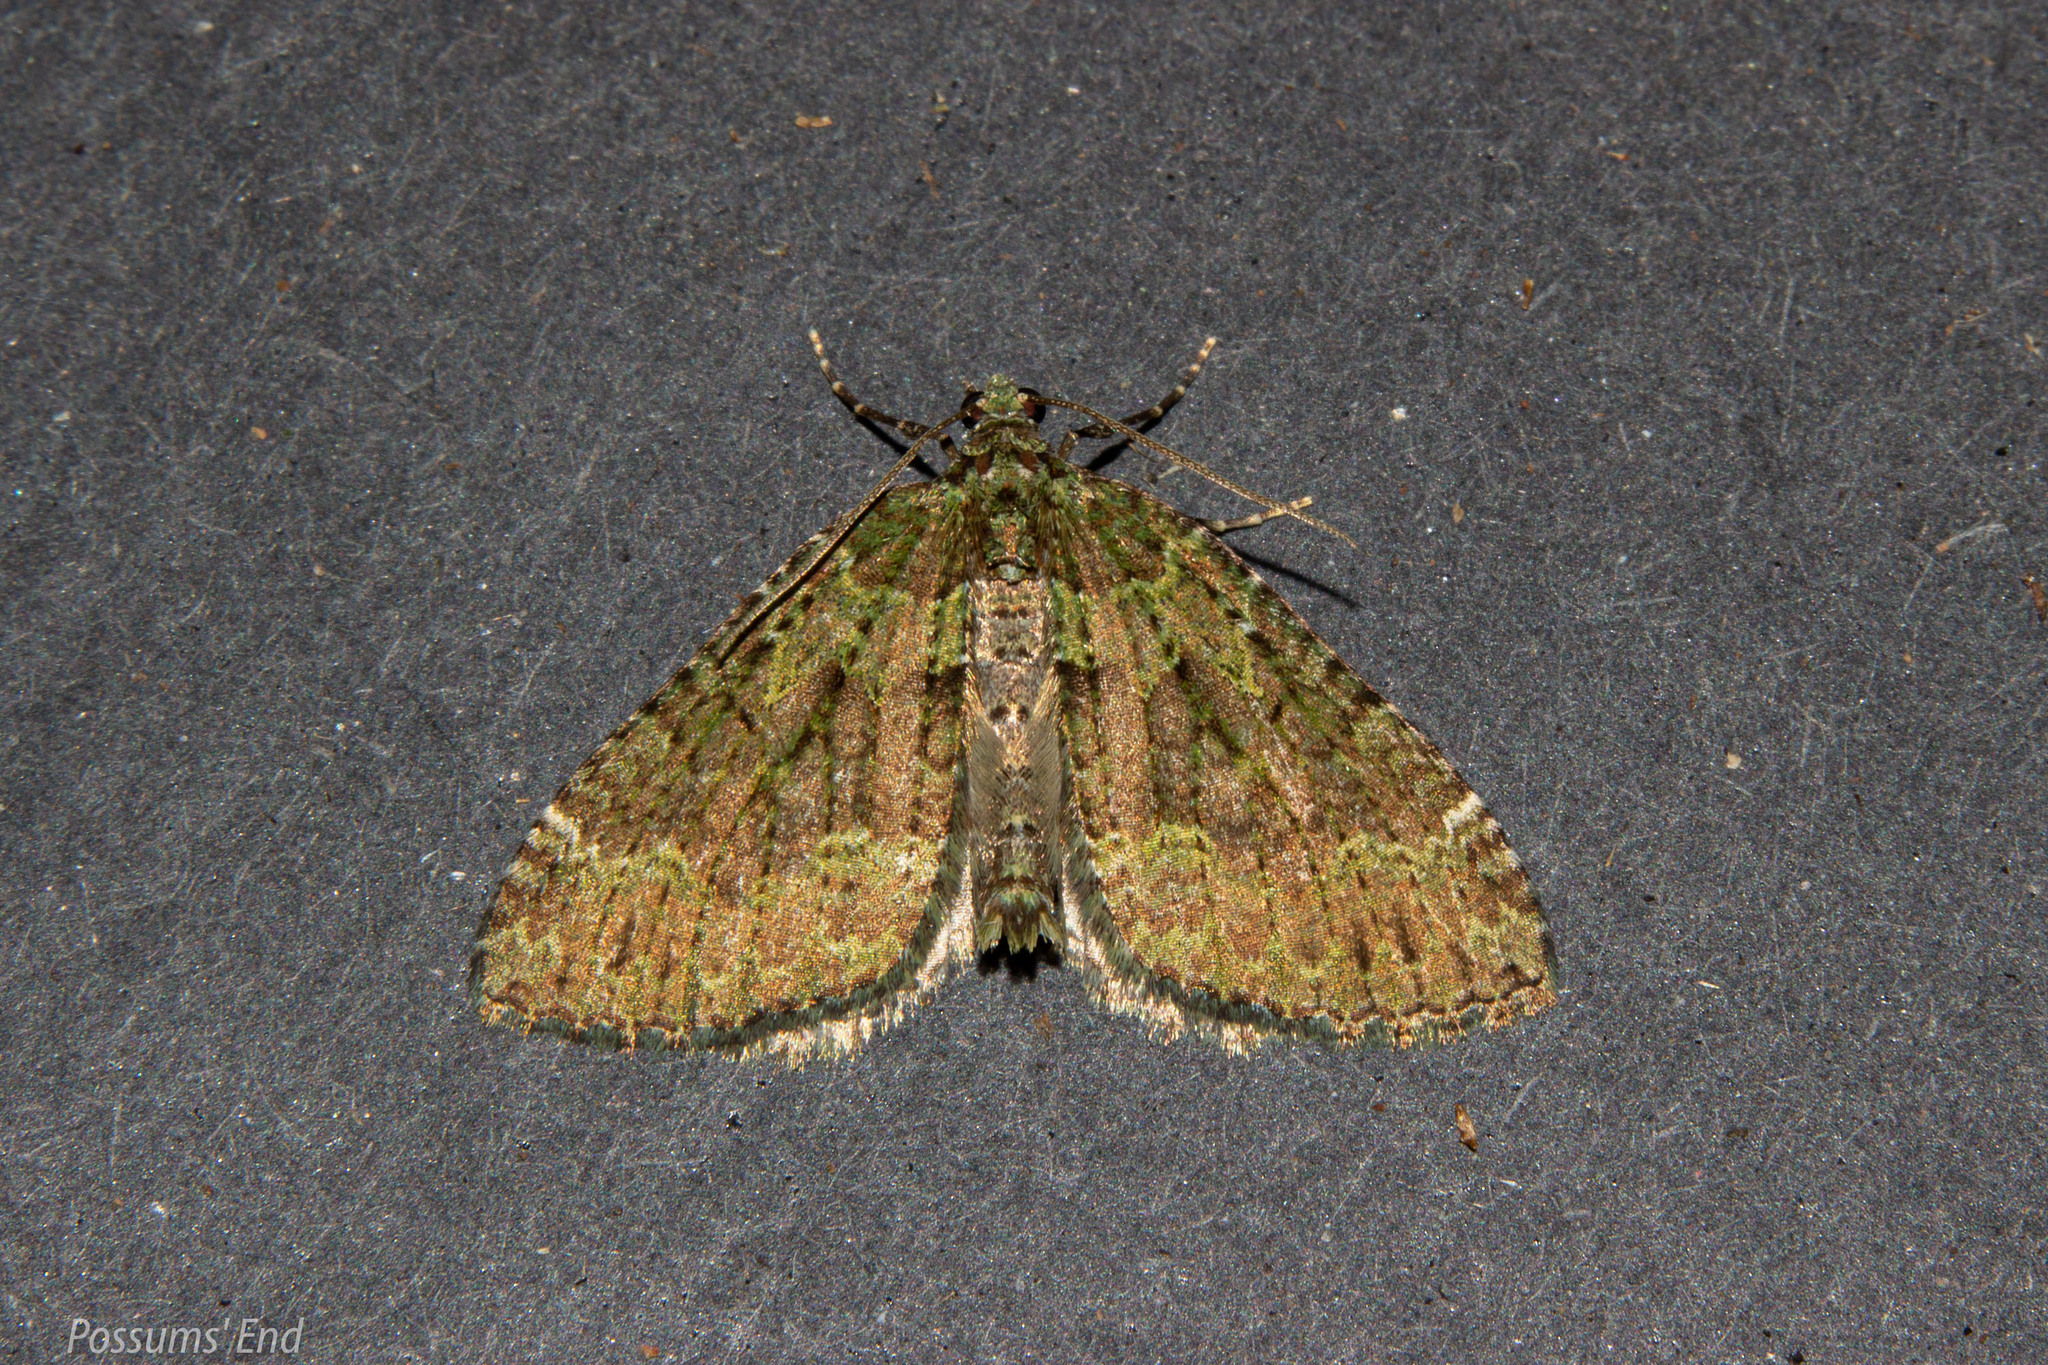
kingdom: Animalia
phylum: Arthropoda
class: Insecta
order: Lepidoptera
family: Geometridae
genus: Austrocidaria
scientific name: Austrocidaria callichlora
